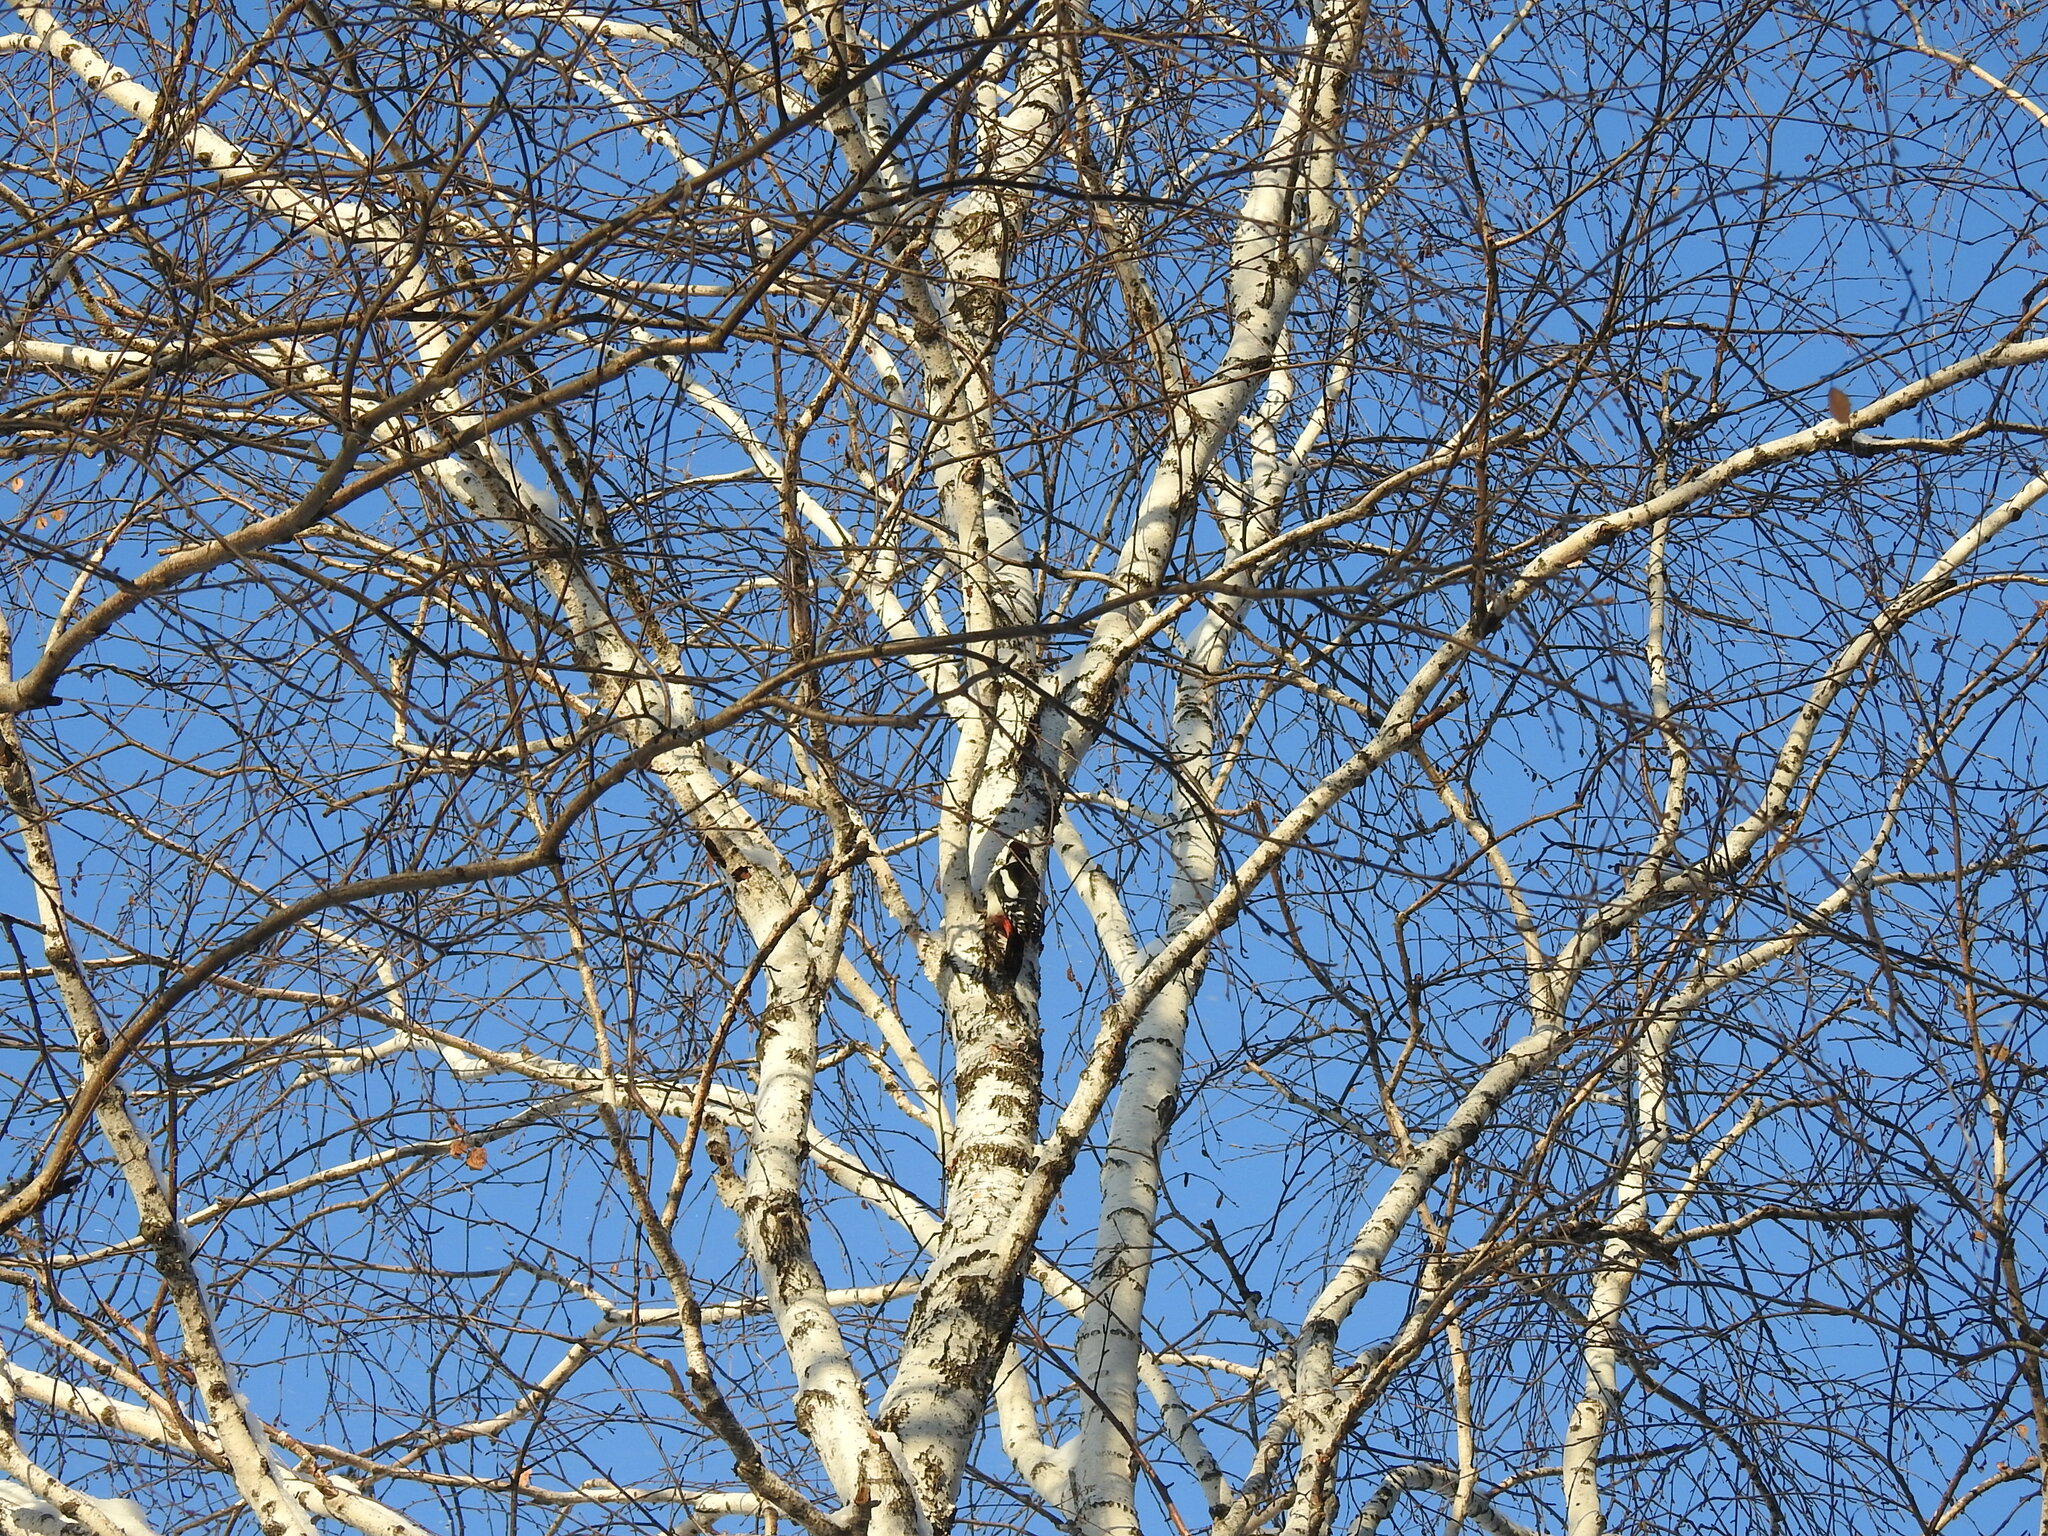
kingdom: Animalia
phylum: Chordata
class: Aves
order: Piciformes
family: Picidae
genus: Dendrocopos
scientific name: Dendrocopos major
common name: Great spotted woodpecker
